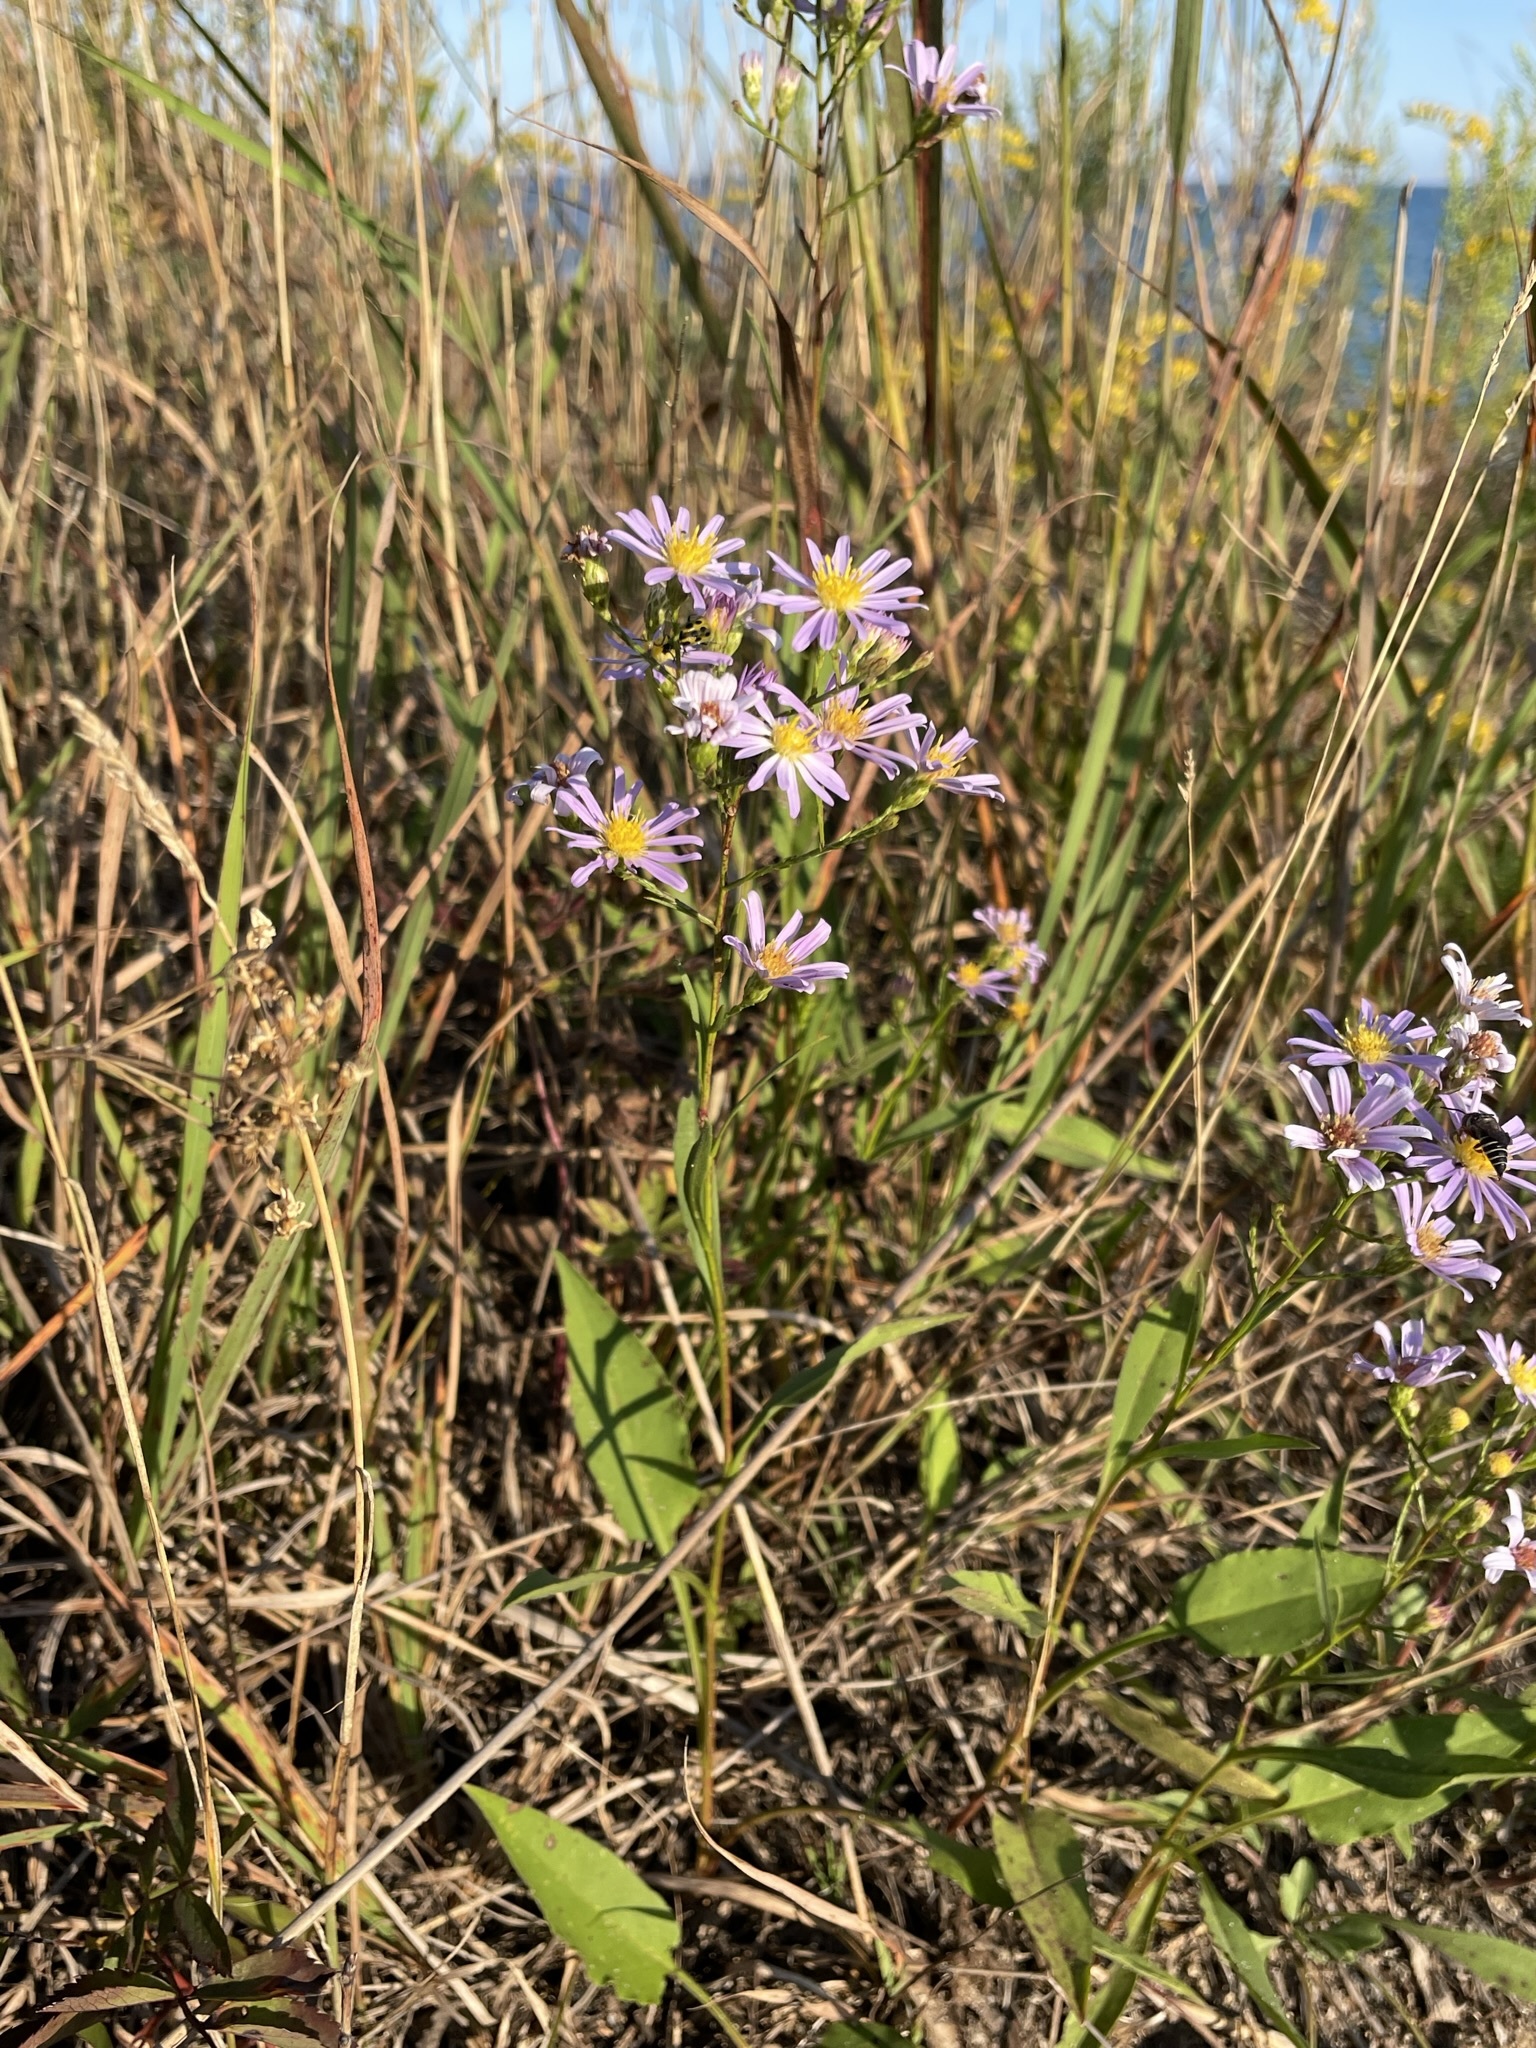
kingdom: Plantae
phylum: Tracheophyta
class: Magnoliopsida
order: Asterales
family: Asteraceae
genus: Symphyotrichum
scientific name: Symphyotrichum oolentangiense
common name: Azure aster
